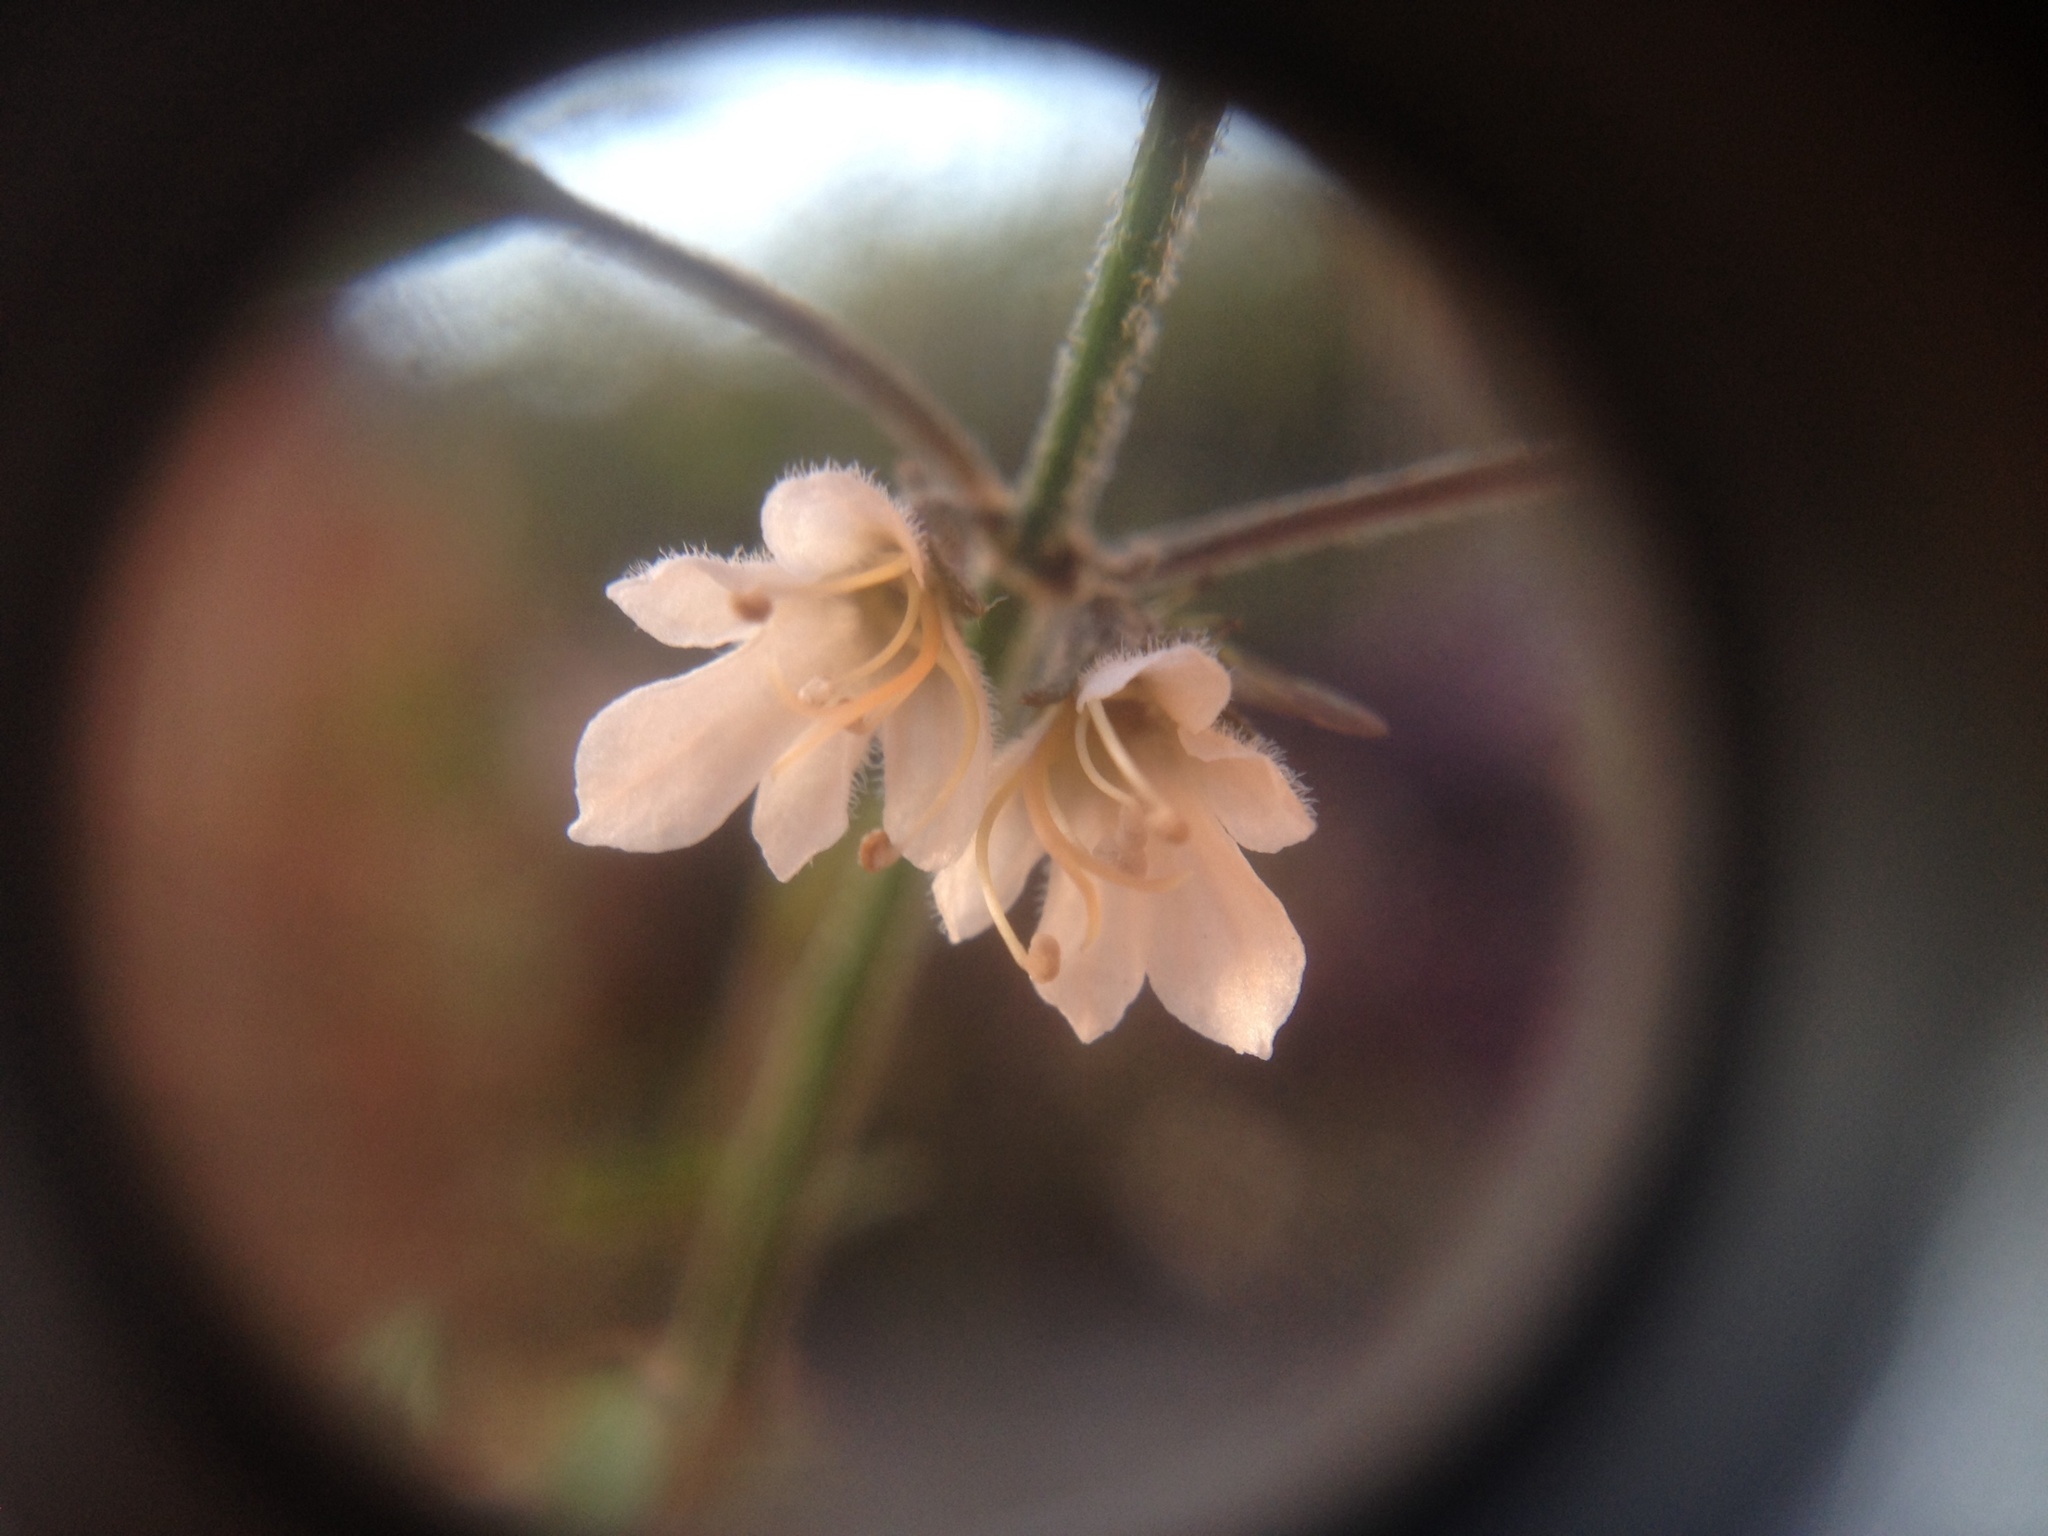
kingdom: Plantae
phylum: Tracheophyta
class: Magnoliopsida
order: Lamiales
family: Lamiaceae
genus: Teucrium
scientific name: Teucrium parvifolium
